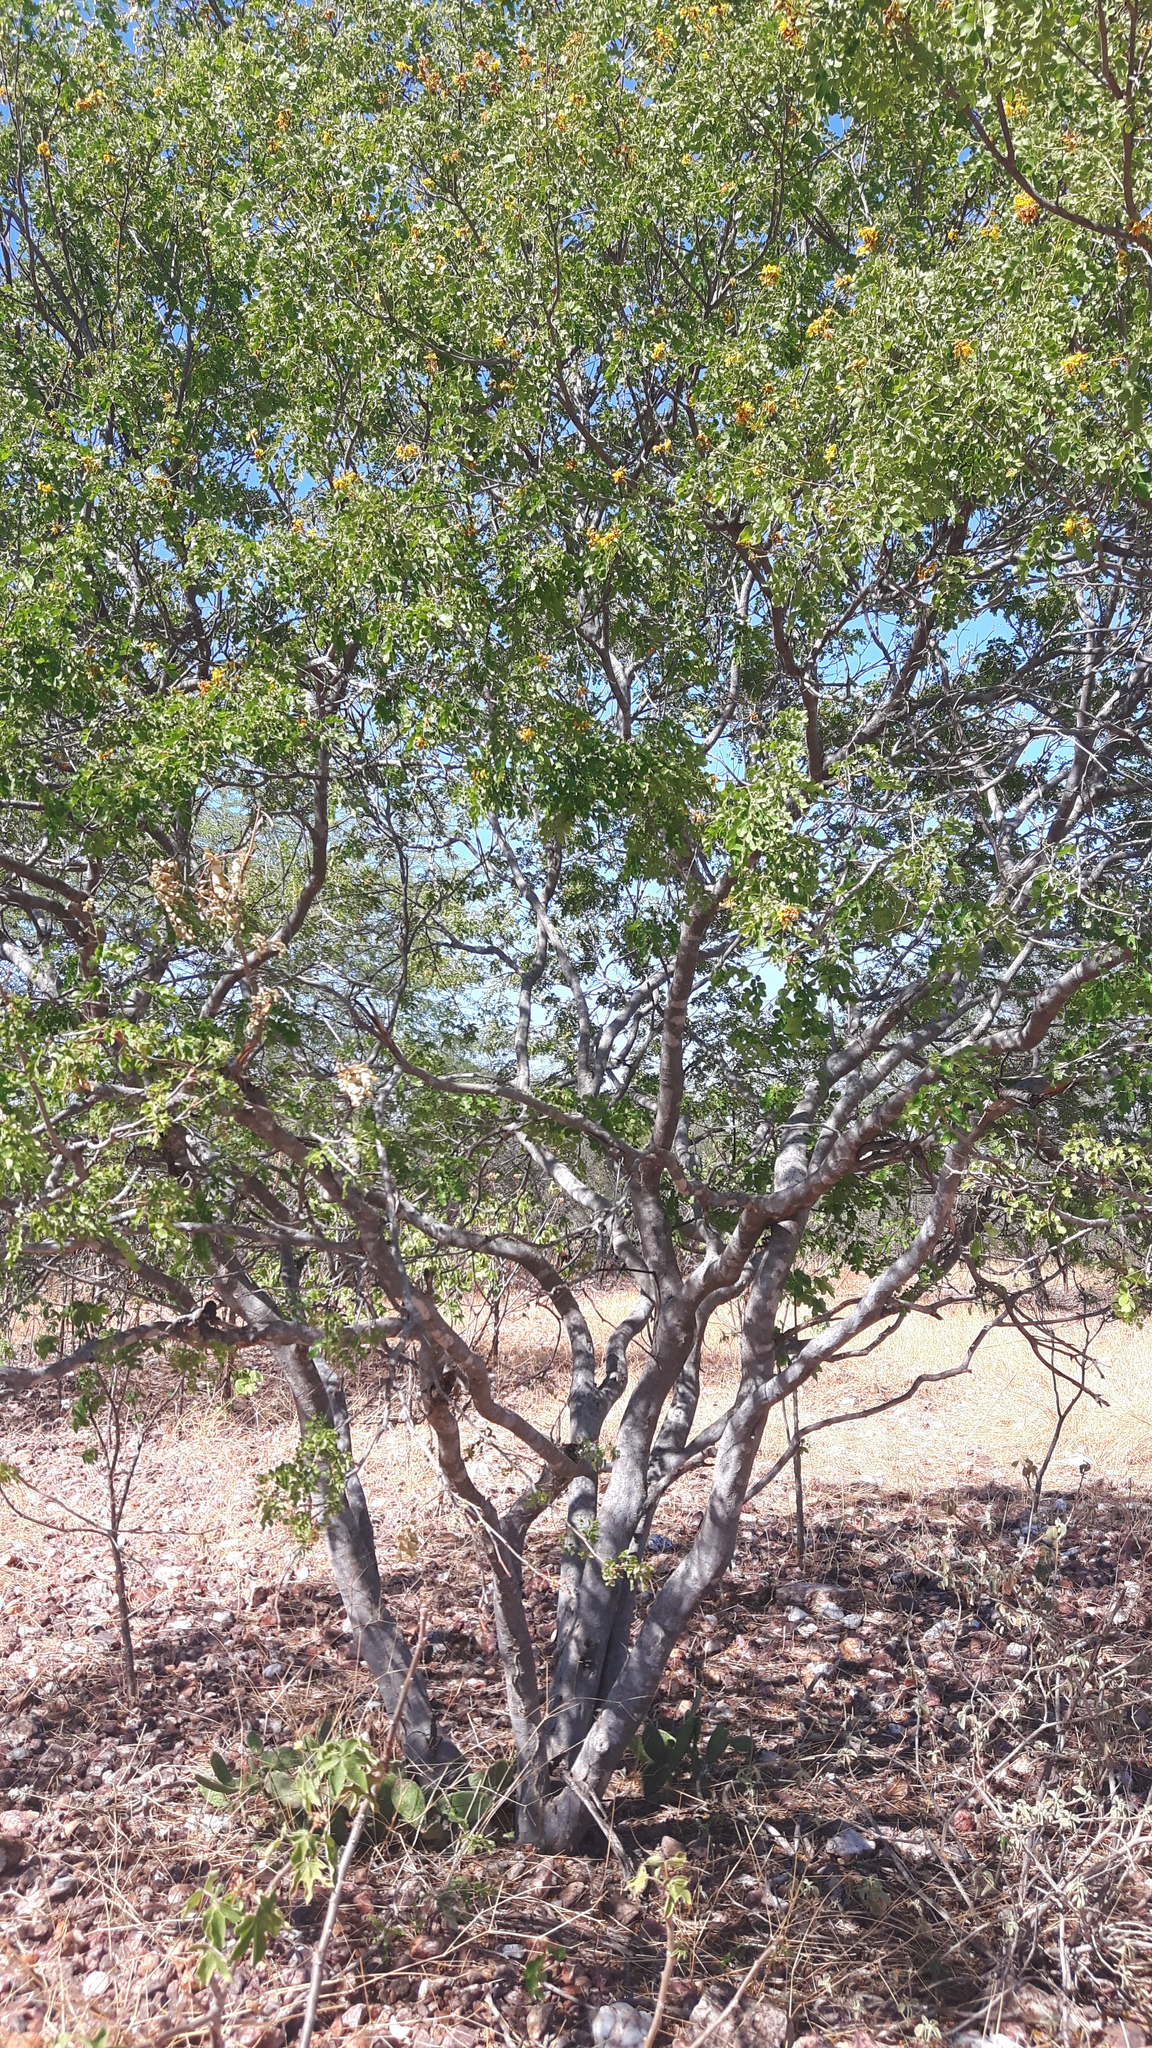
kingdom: Plantae
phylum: Tracheophyta
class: Magnoliopsida
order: Fabales
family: Fabaceae
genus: Cenostigma
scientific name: Cenostigma nordestinum
